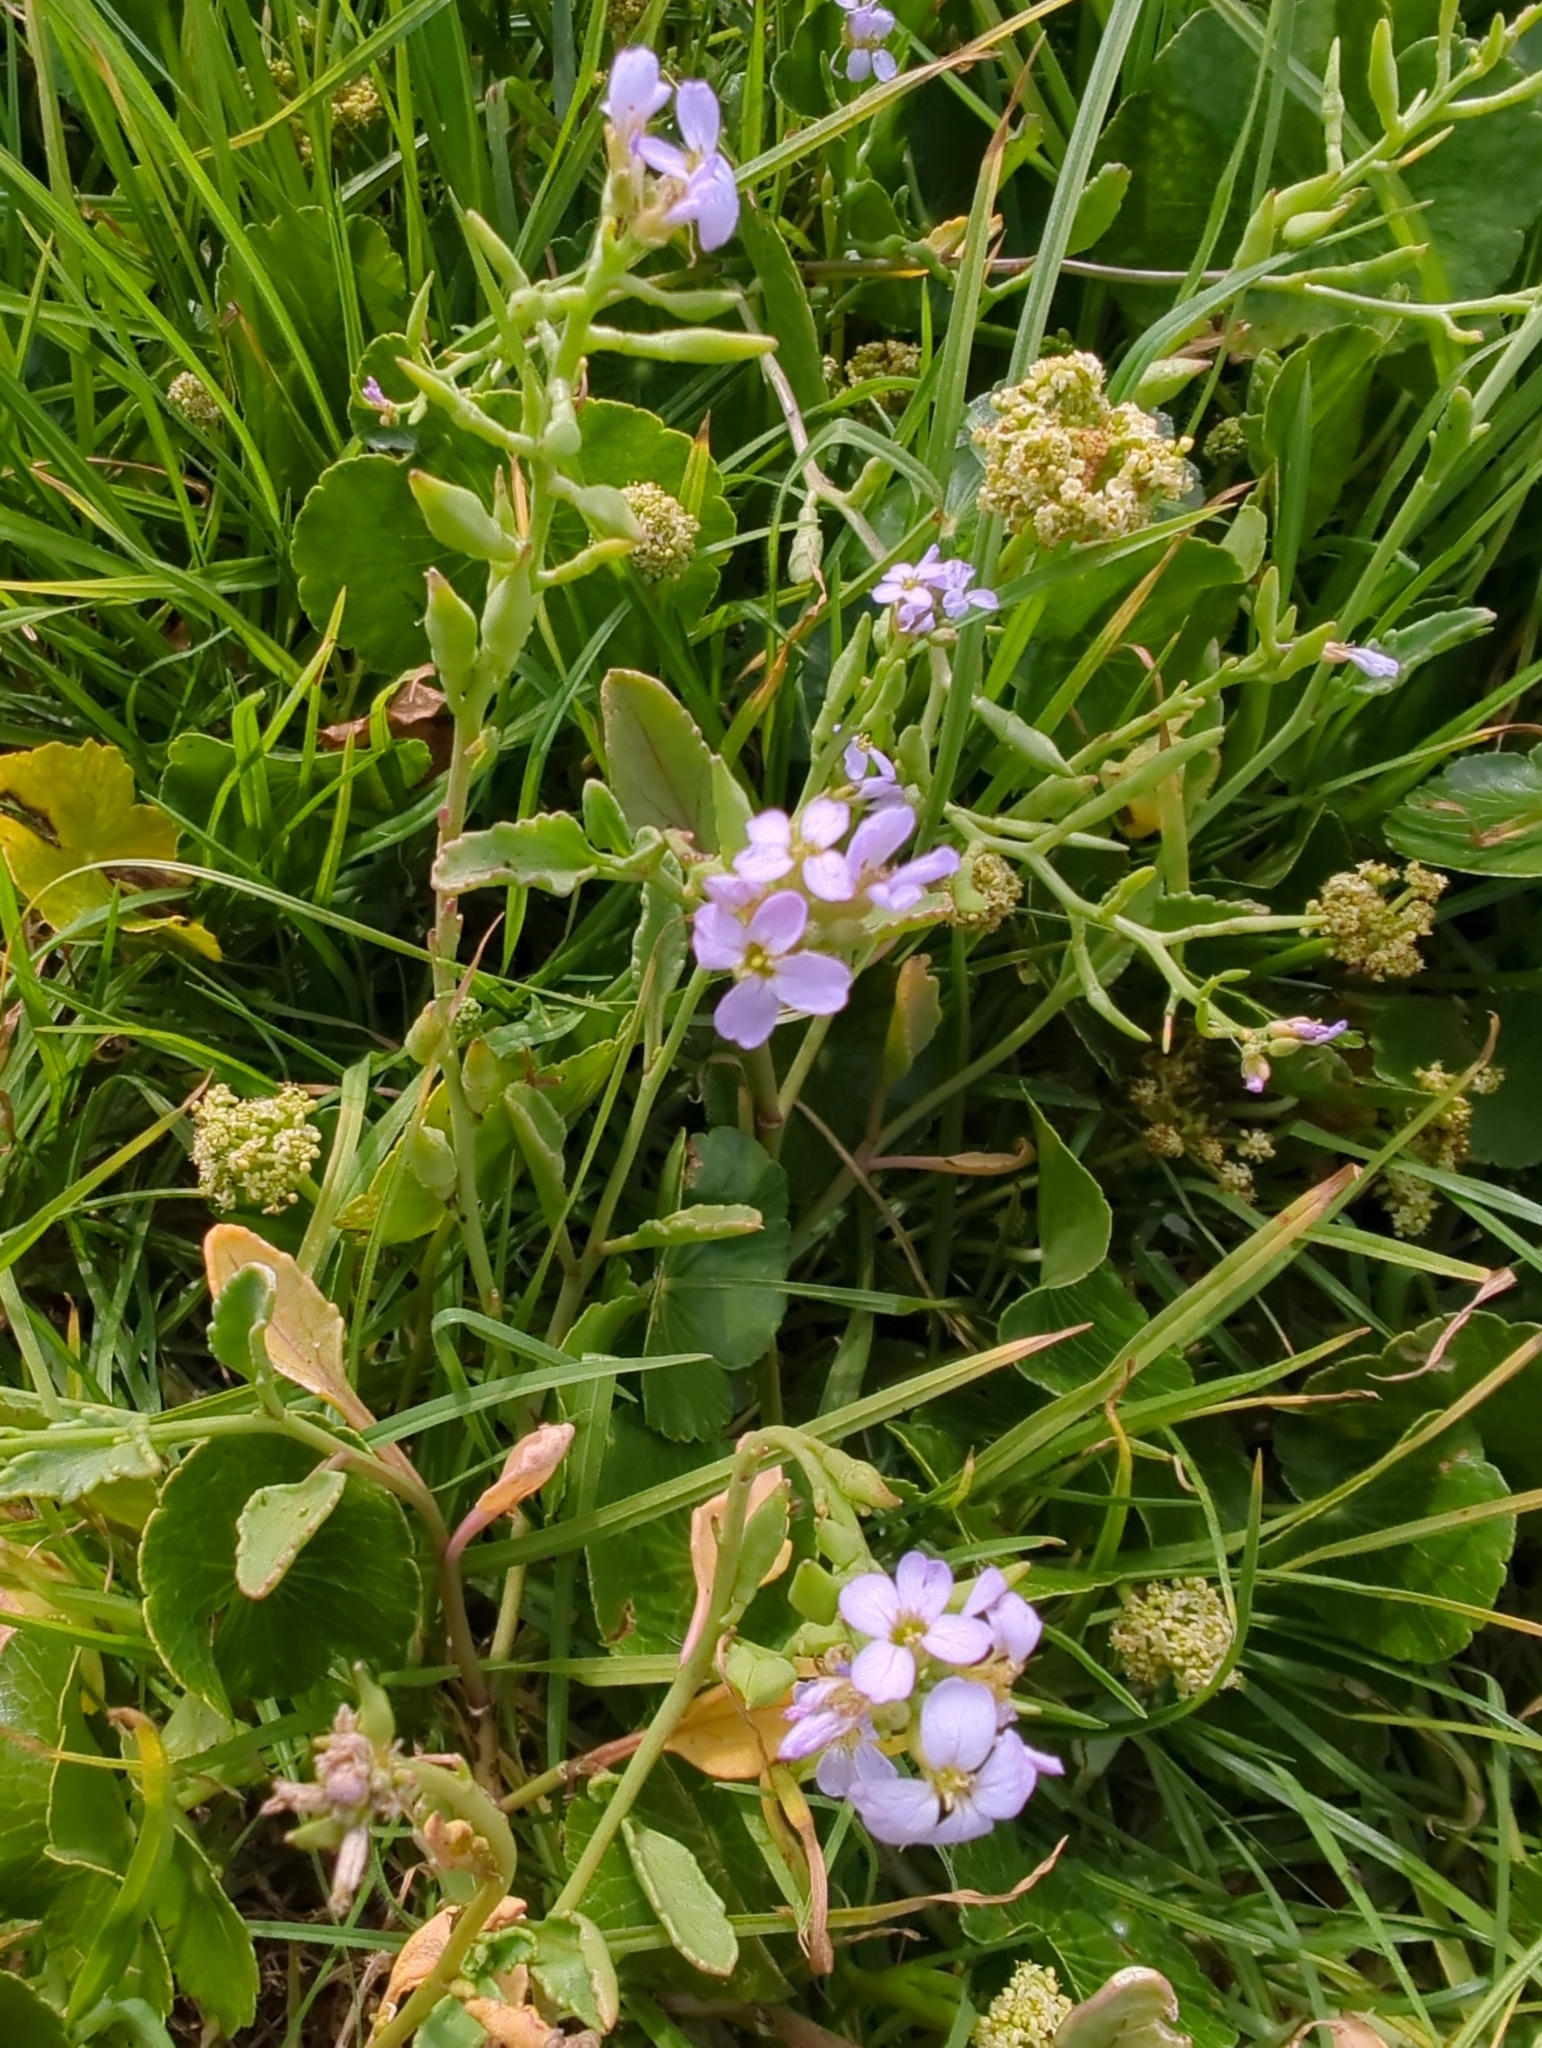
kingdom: Plantae
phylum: Tracheophyta
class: Magnoliopsida
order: Brassicales
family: Brassicaceae
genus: Cakile
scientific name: Cakile maritima
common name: Sea rocket
